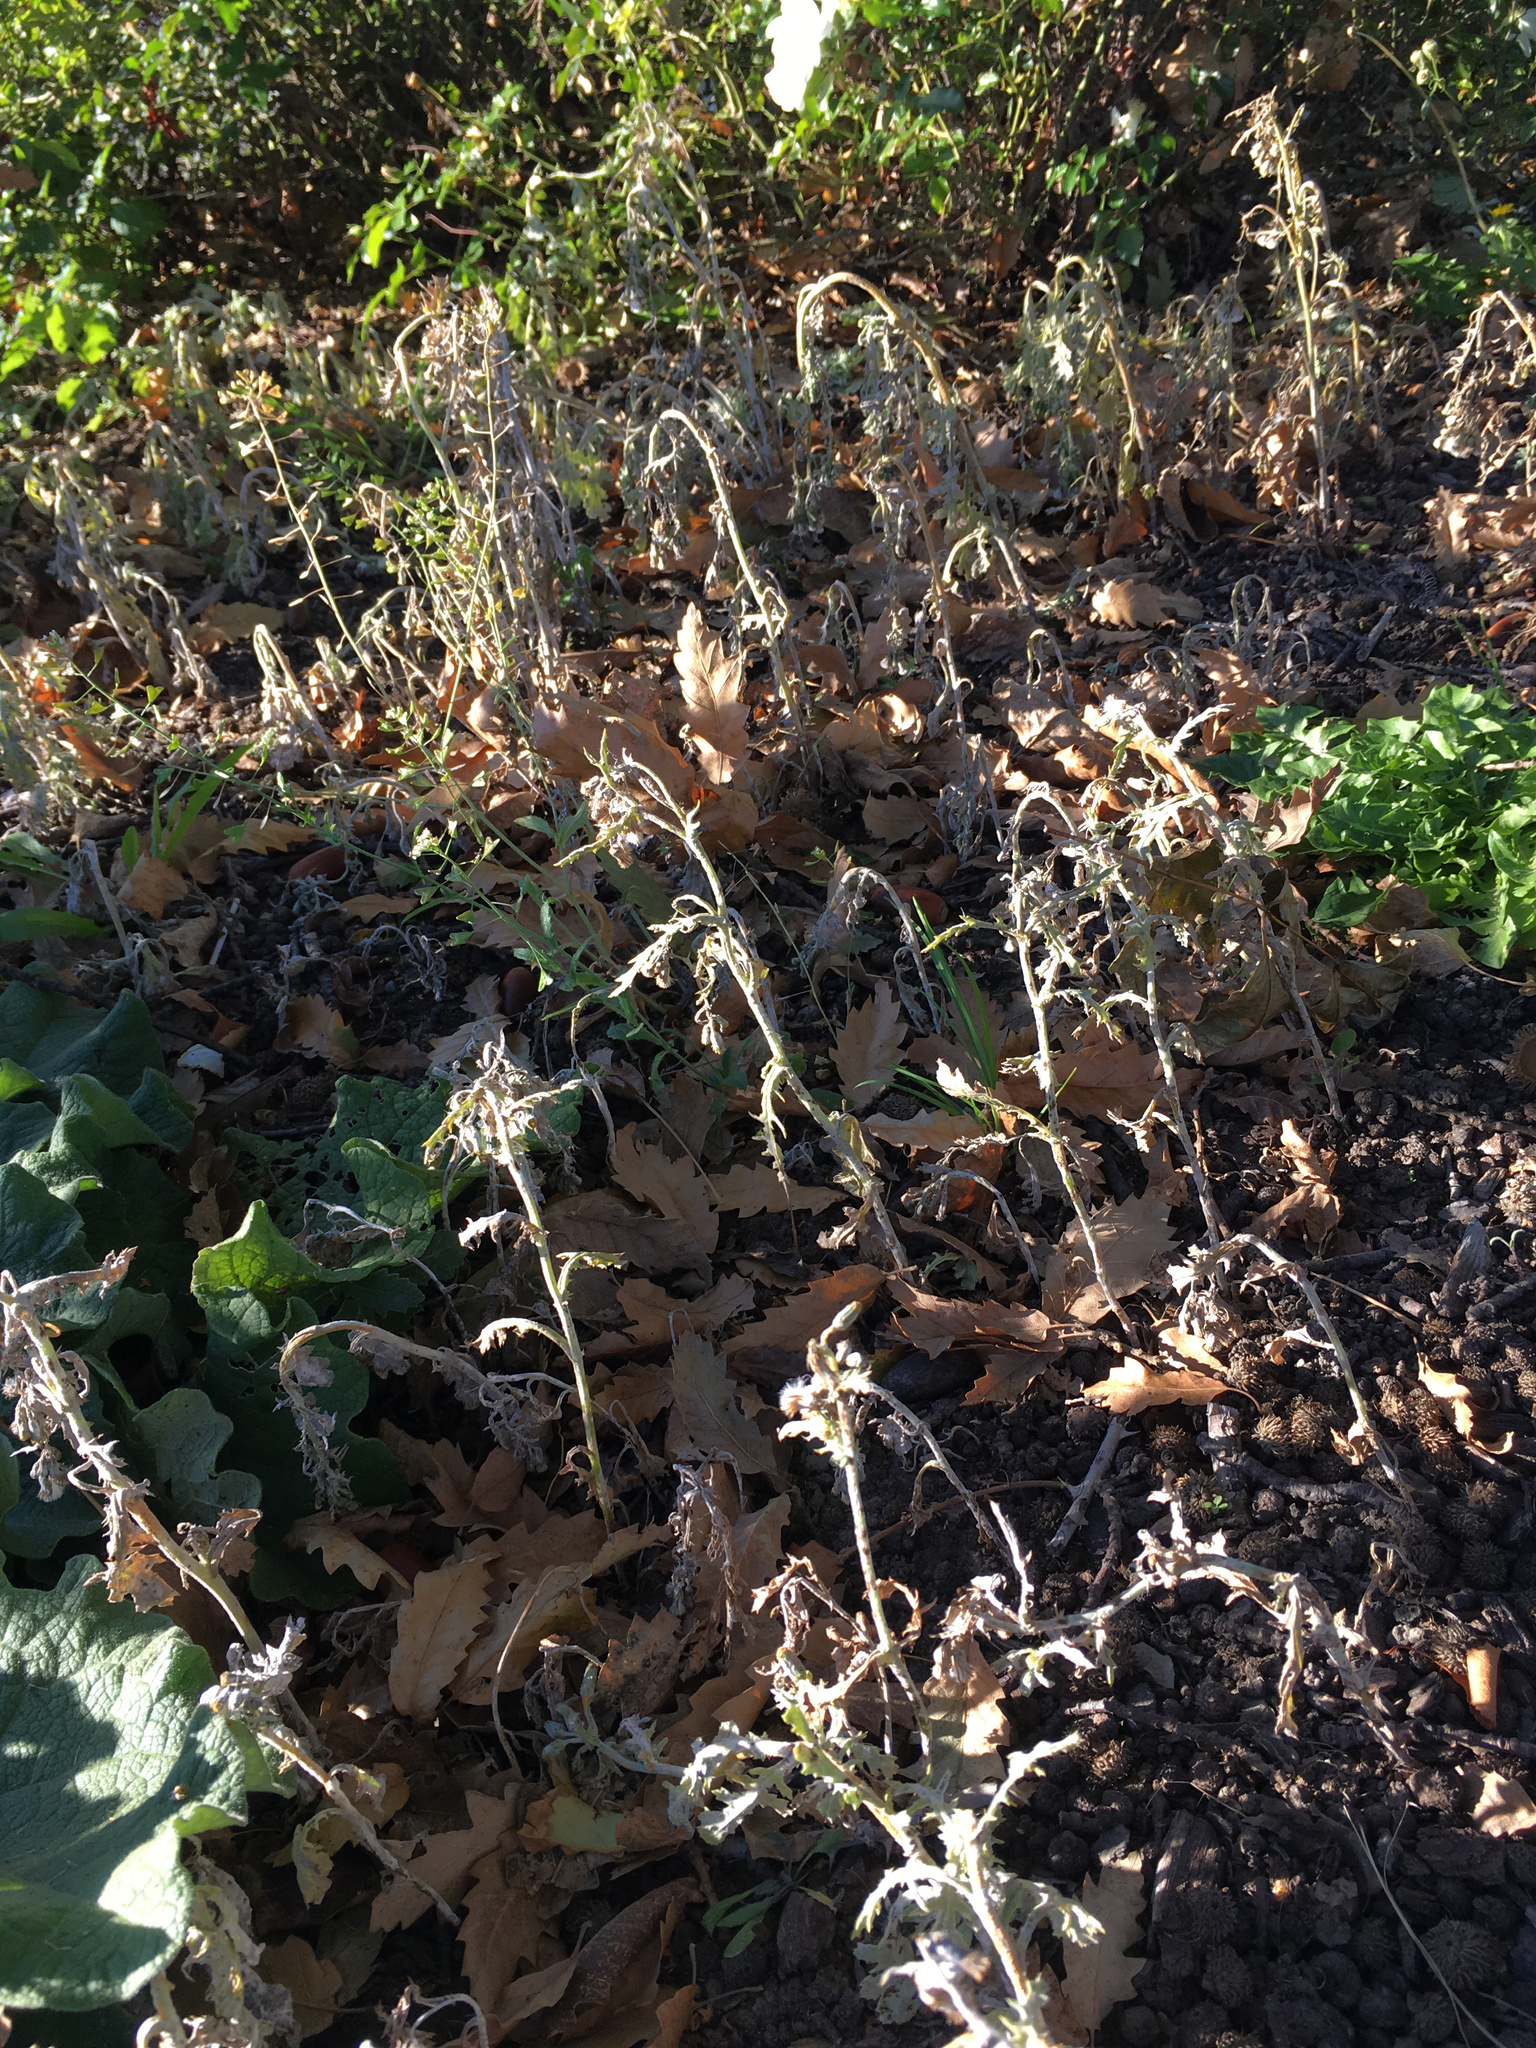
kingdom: Plantae
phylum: Tracheophyta
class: Magnoliopsida
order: Asterales
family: Asteraceae
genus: Senecio
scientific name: Senecio vulgaris
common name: Old-man-in-the-spring
